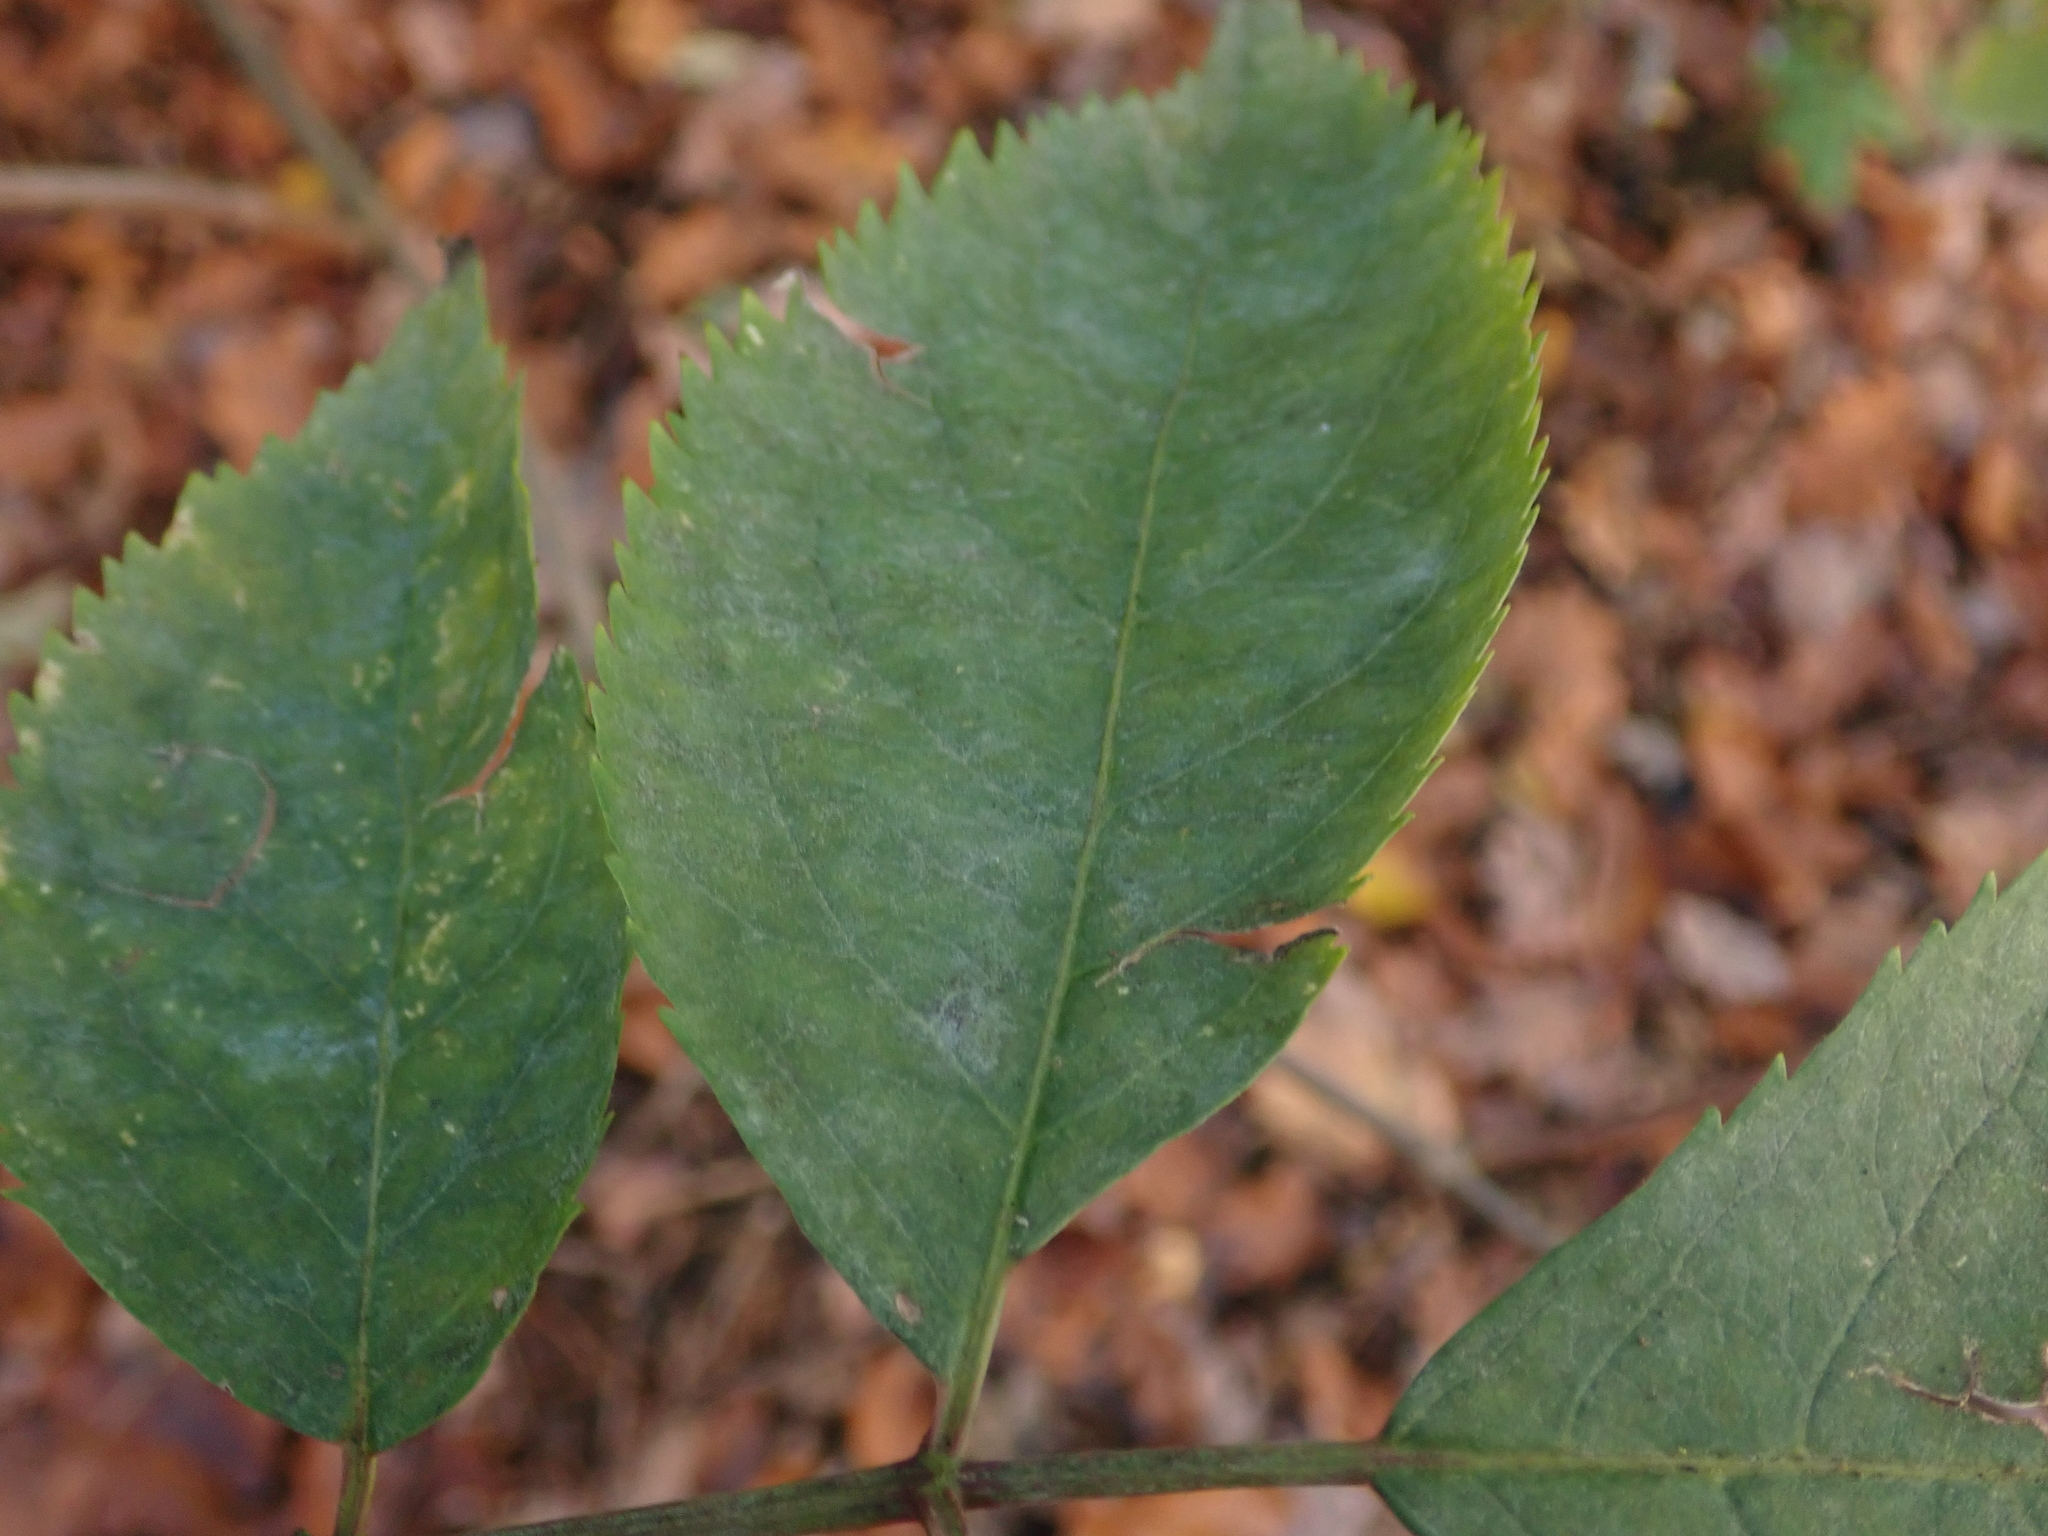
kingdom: Fungi
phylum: Ascomycota
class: Leotiomycetes
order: Helotiales
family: Erysiphaceae
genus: Erysiphe
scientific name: Erysiphe sambuci
